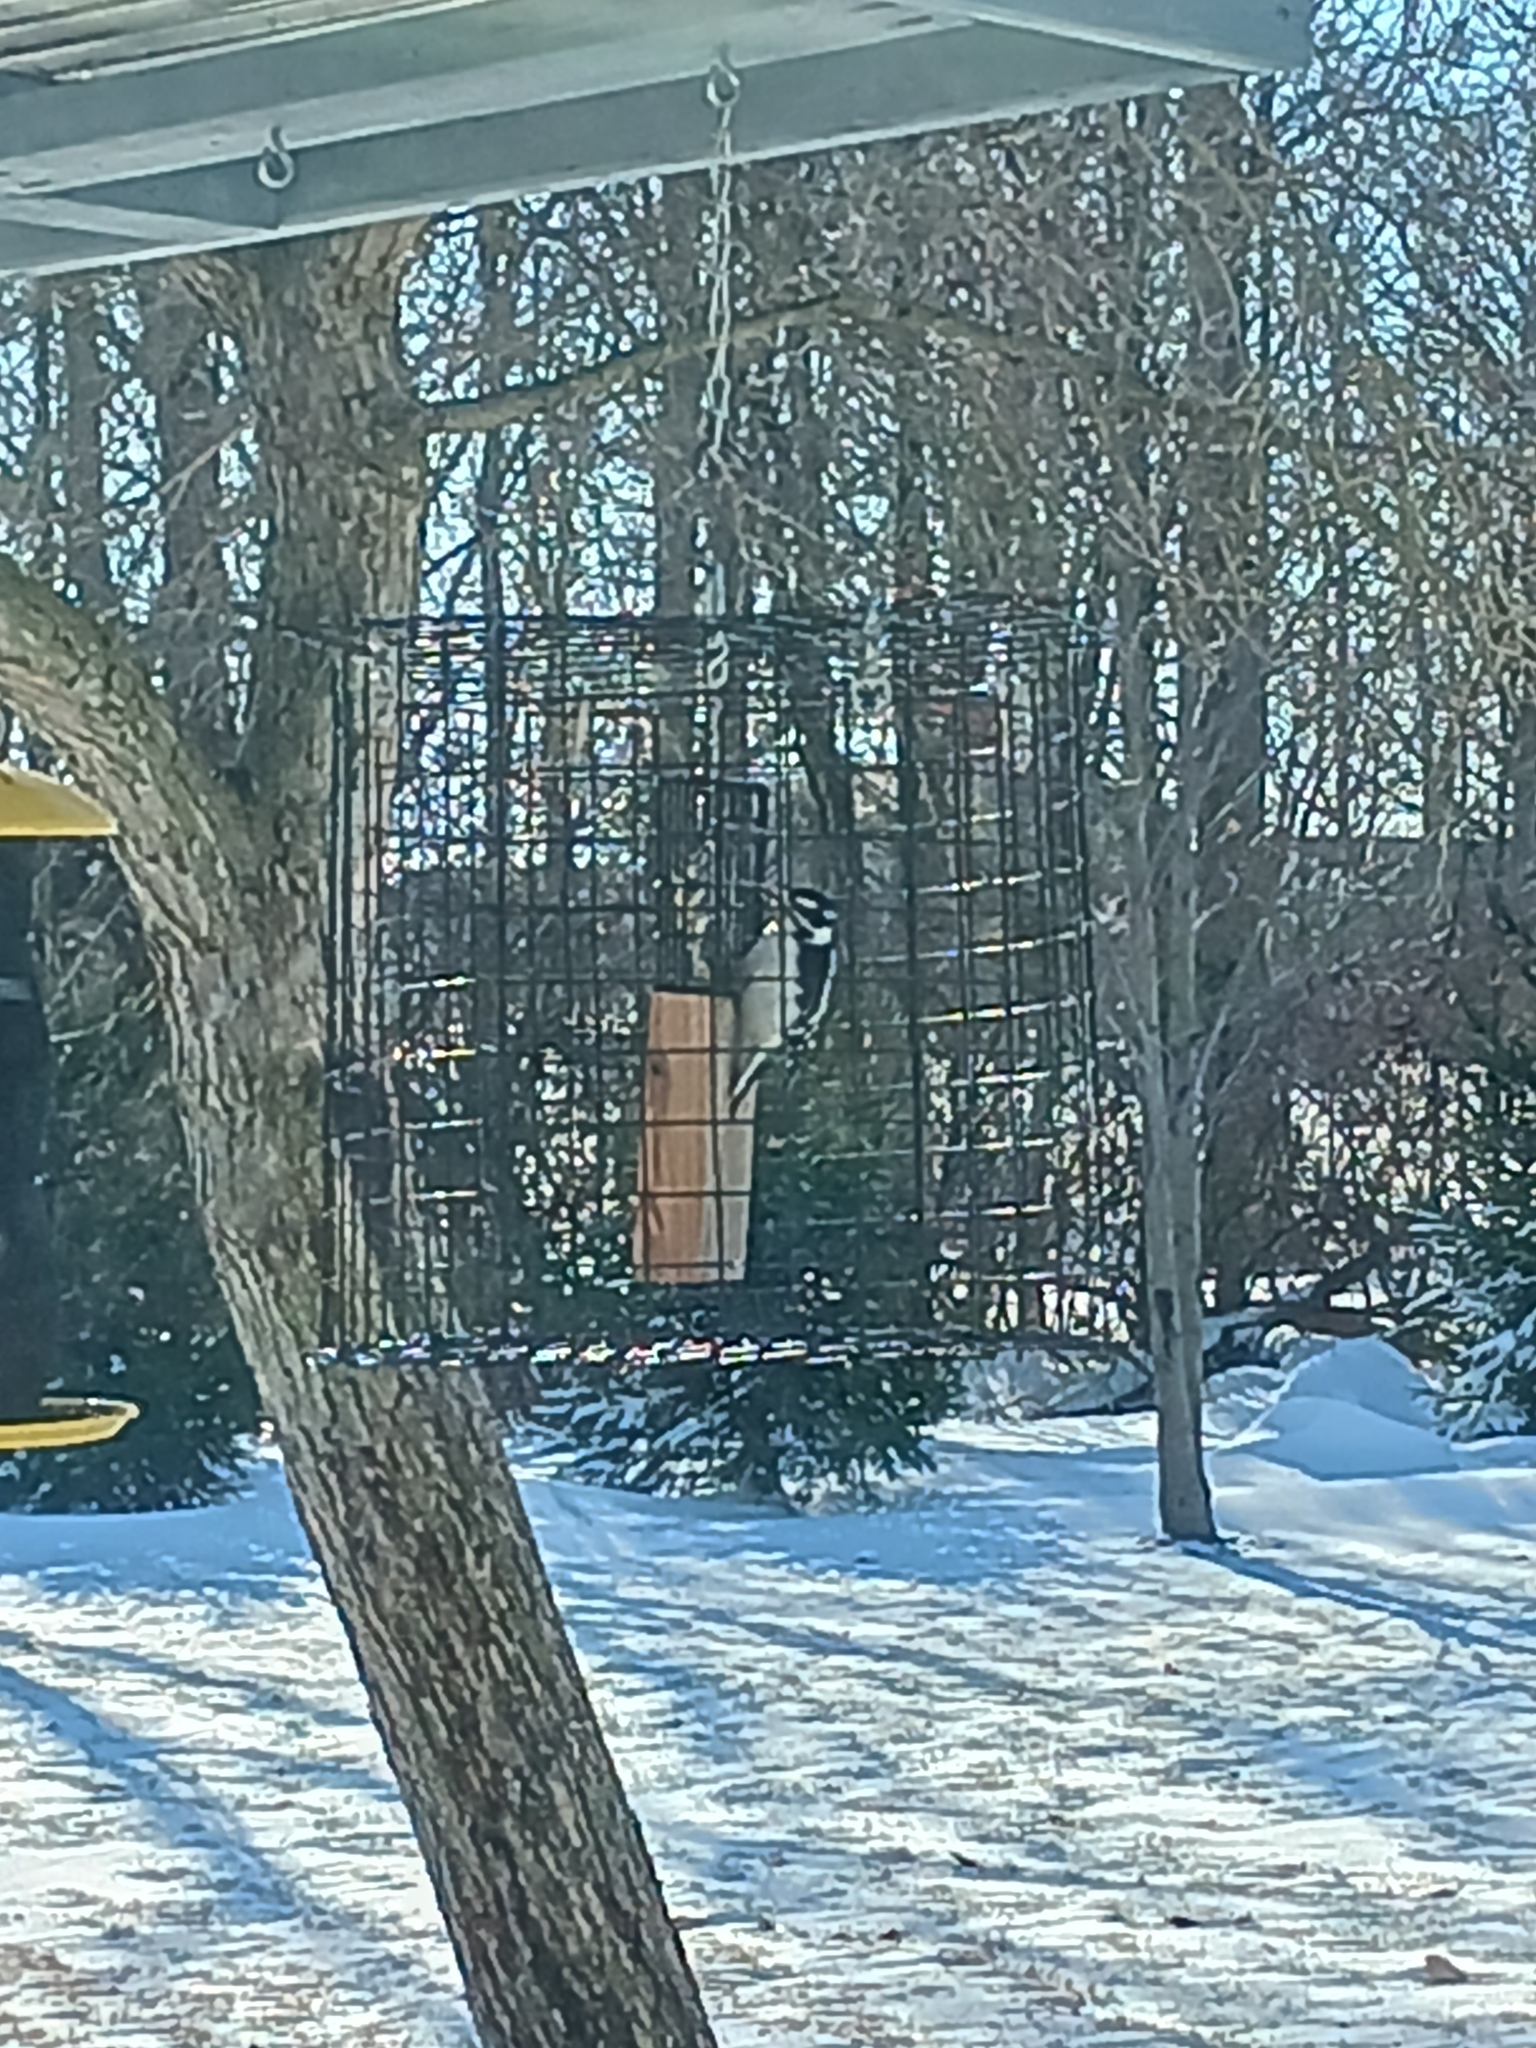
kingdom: Animalia
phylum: Chordata
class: Aves
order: Piciformes
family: Picidae
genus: Dryobates
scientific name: Dryobates pubescens
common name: Downy woodpecker
